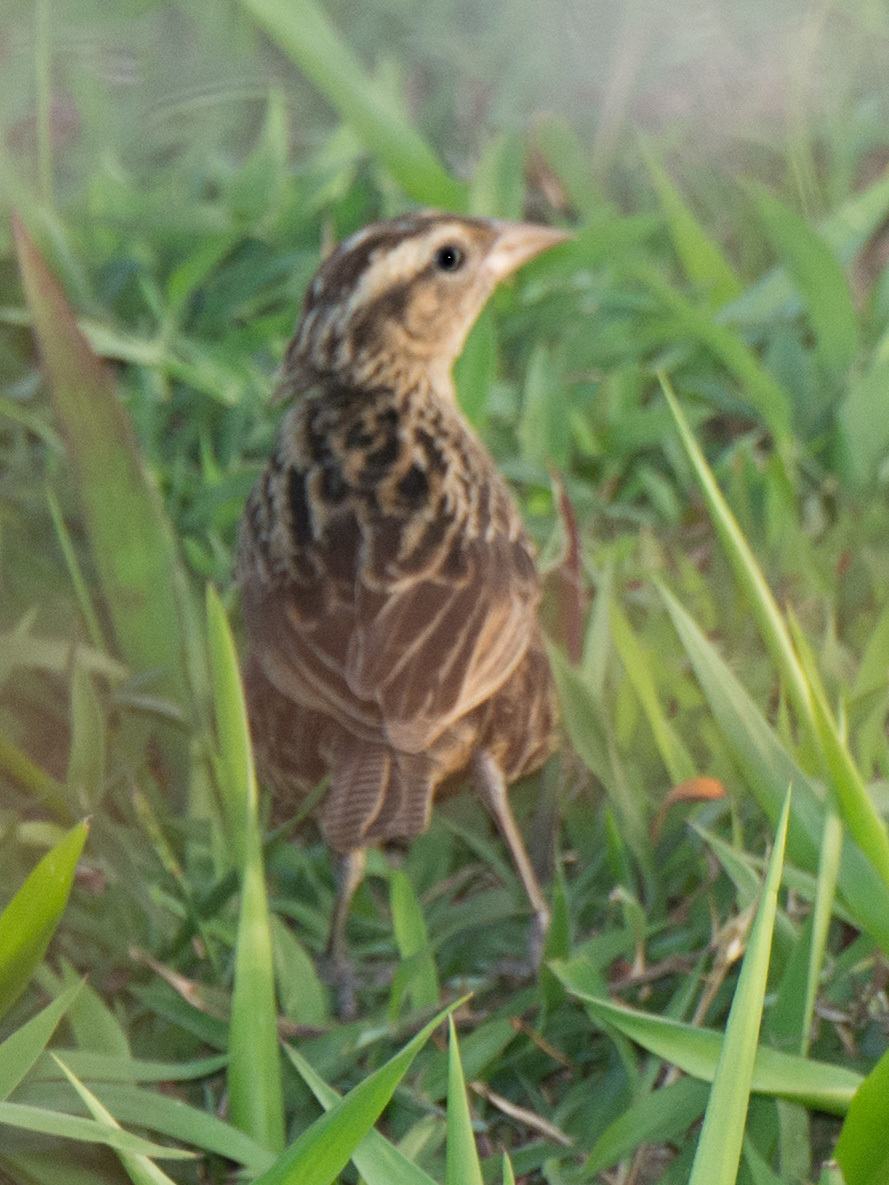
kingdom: Animalia
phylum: Chordata
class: Aves
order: Passeriformes
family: Icteridae
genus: Sturnella
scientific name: Sturnella militaris
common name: Red-breasted blackbird
